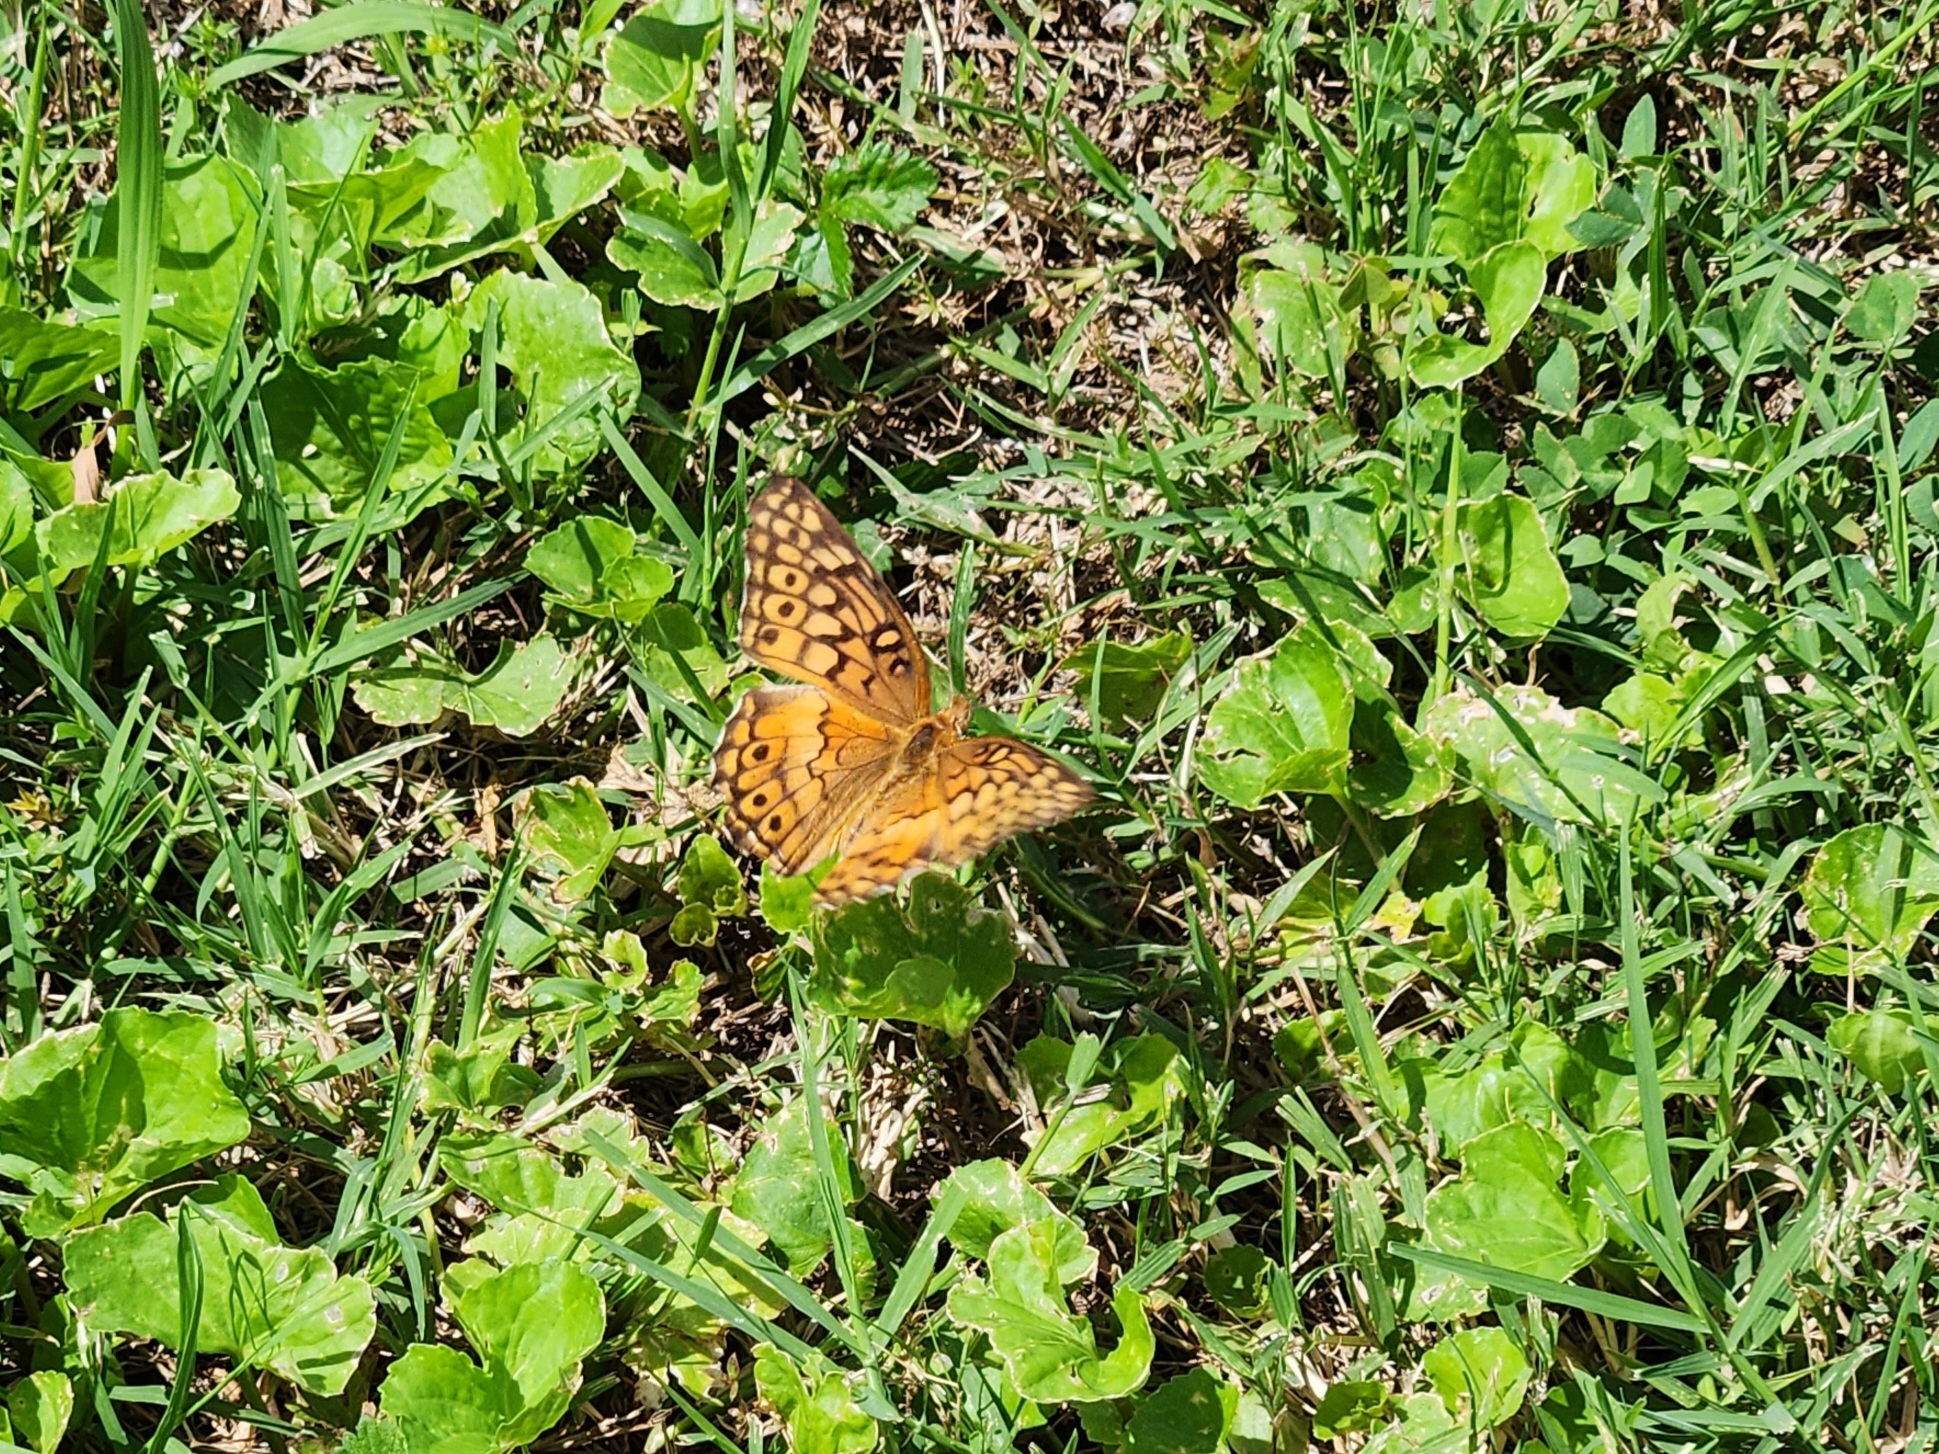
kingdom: Animalia
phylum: Arthropoda
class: Insecta
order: Lepidoptera
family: Nymphalidae
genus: Euptoieta
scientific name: Euptoieta claudia
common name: Variegated fritillary
